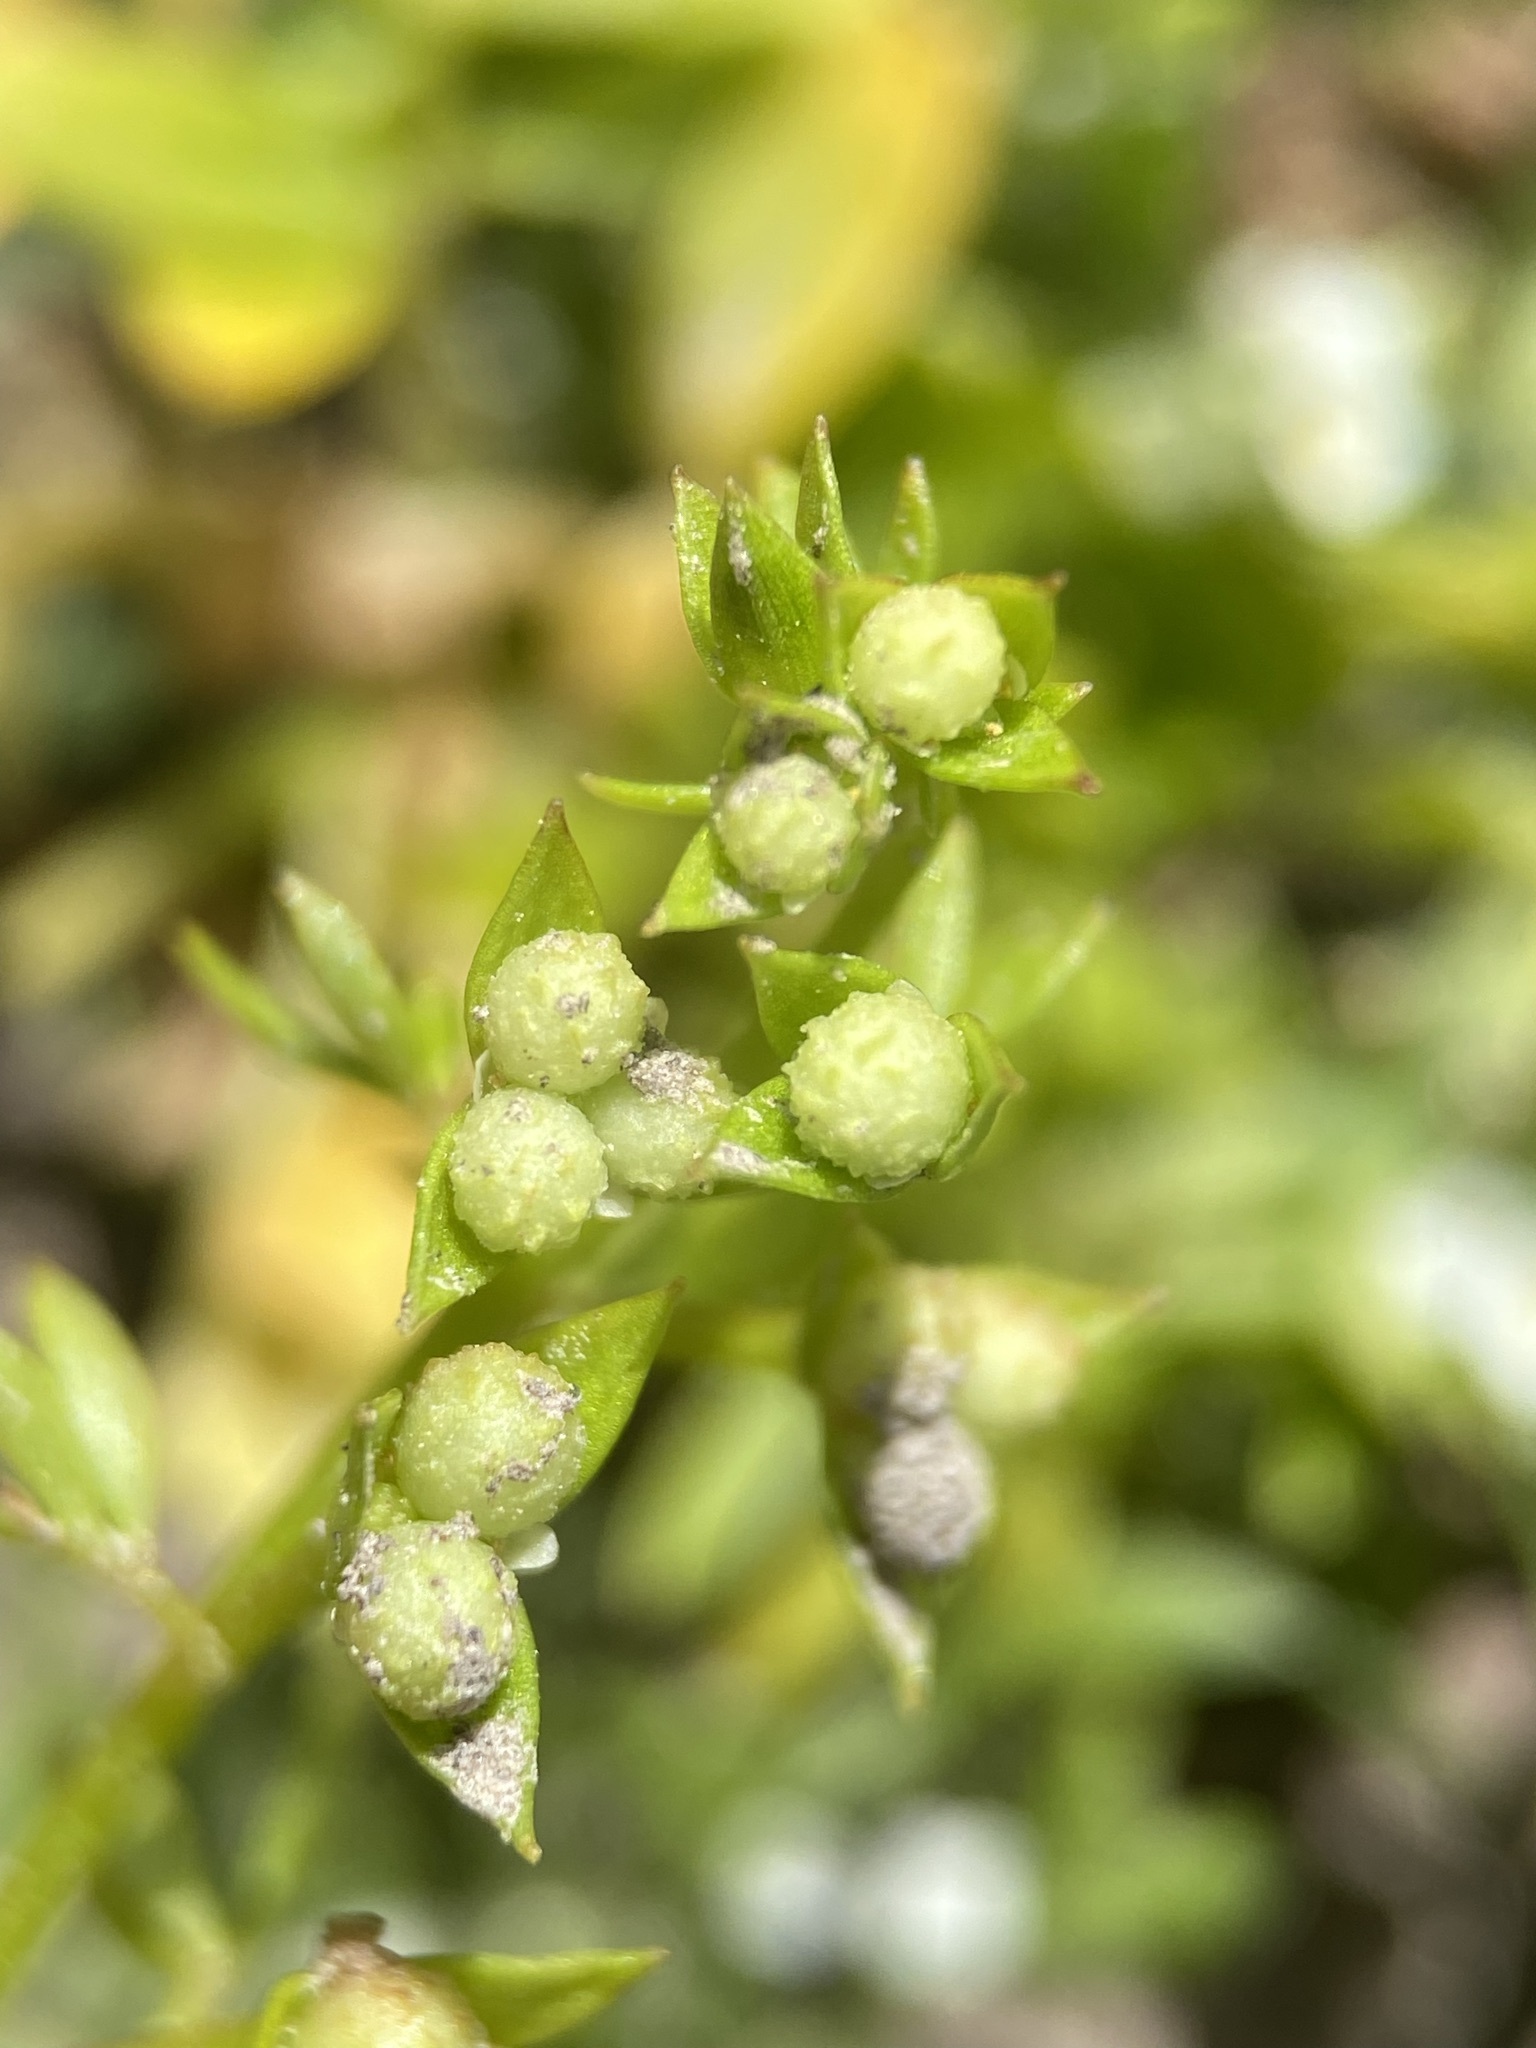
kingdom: Plantae
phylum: Tracheophyta
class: Magnoliopsida
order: Brassicales
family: Limnanthaceae
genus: Floerkea
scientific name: Floerkea proserpinacoides
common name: False mermaid
